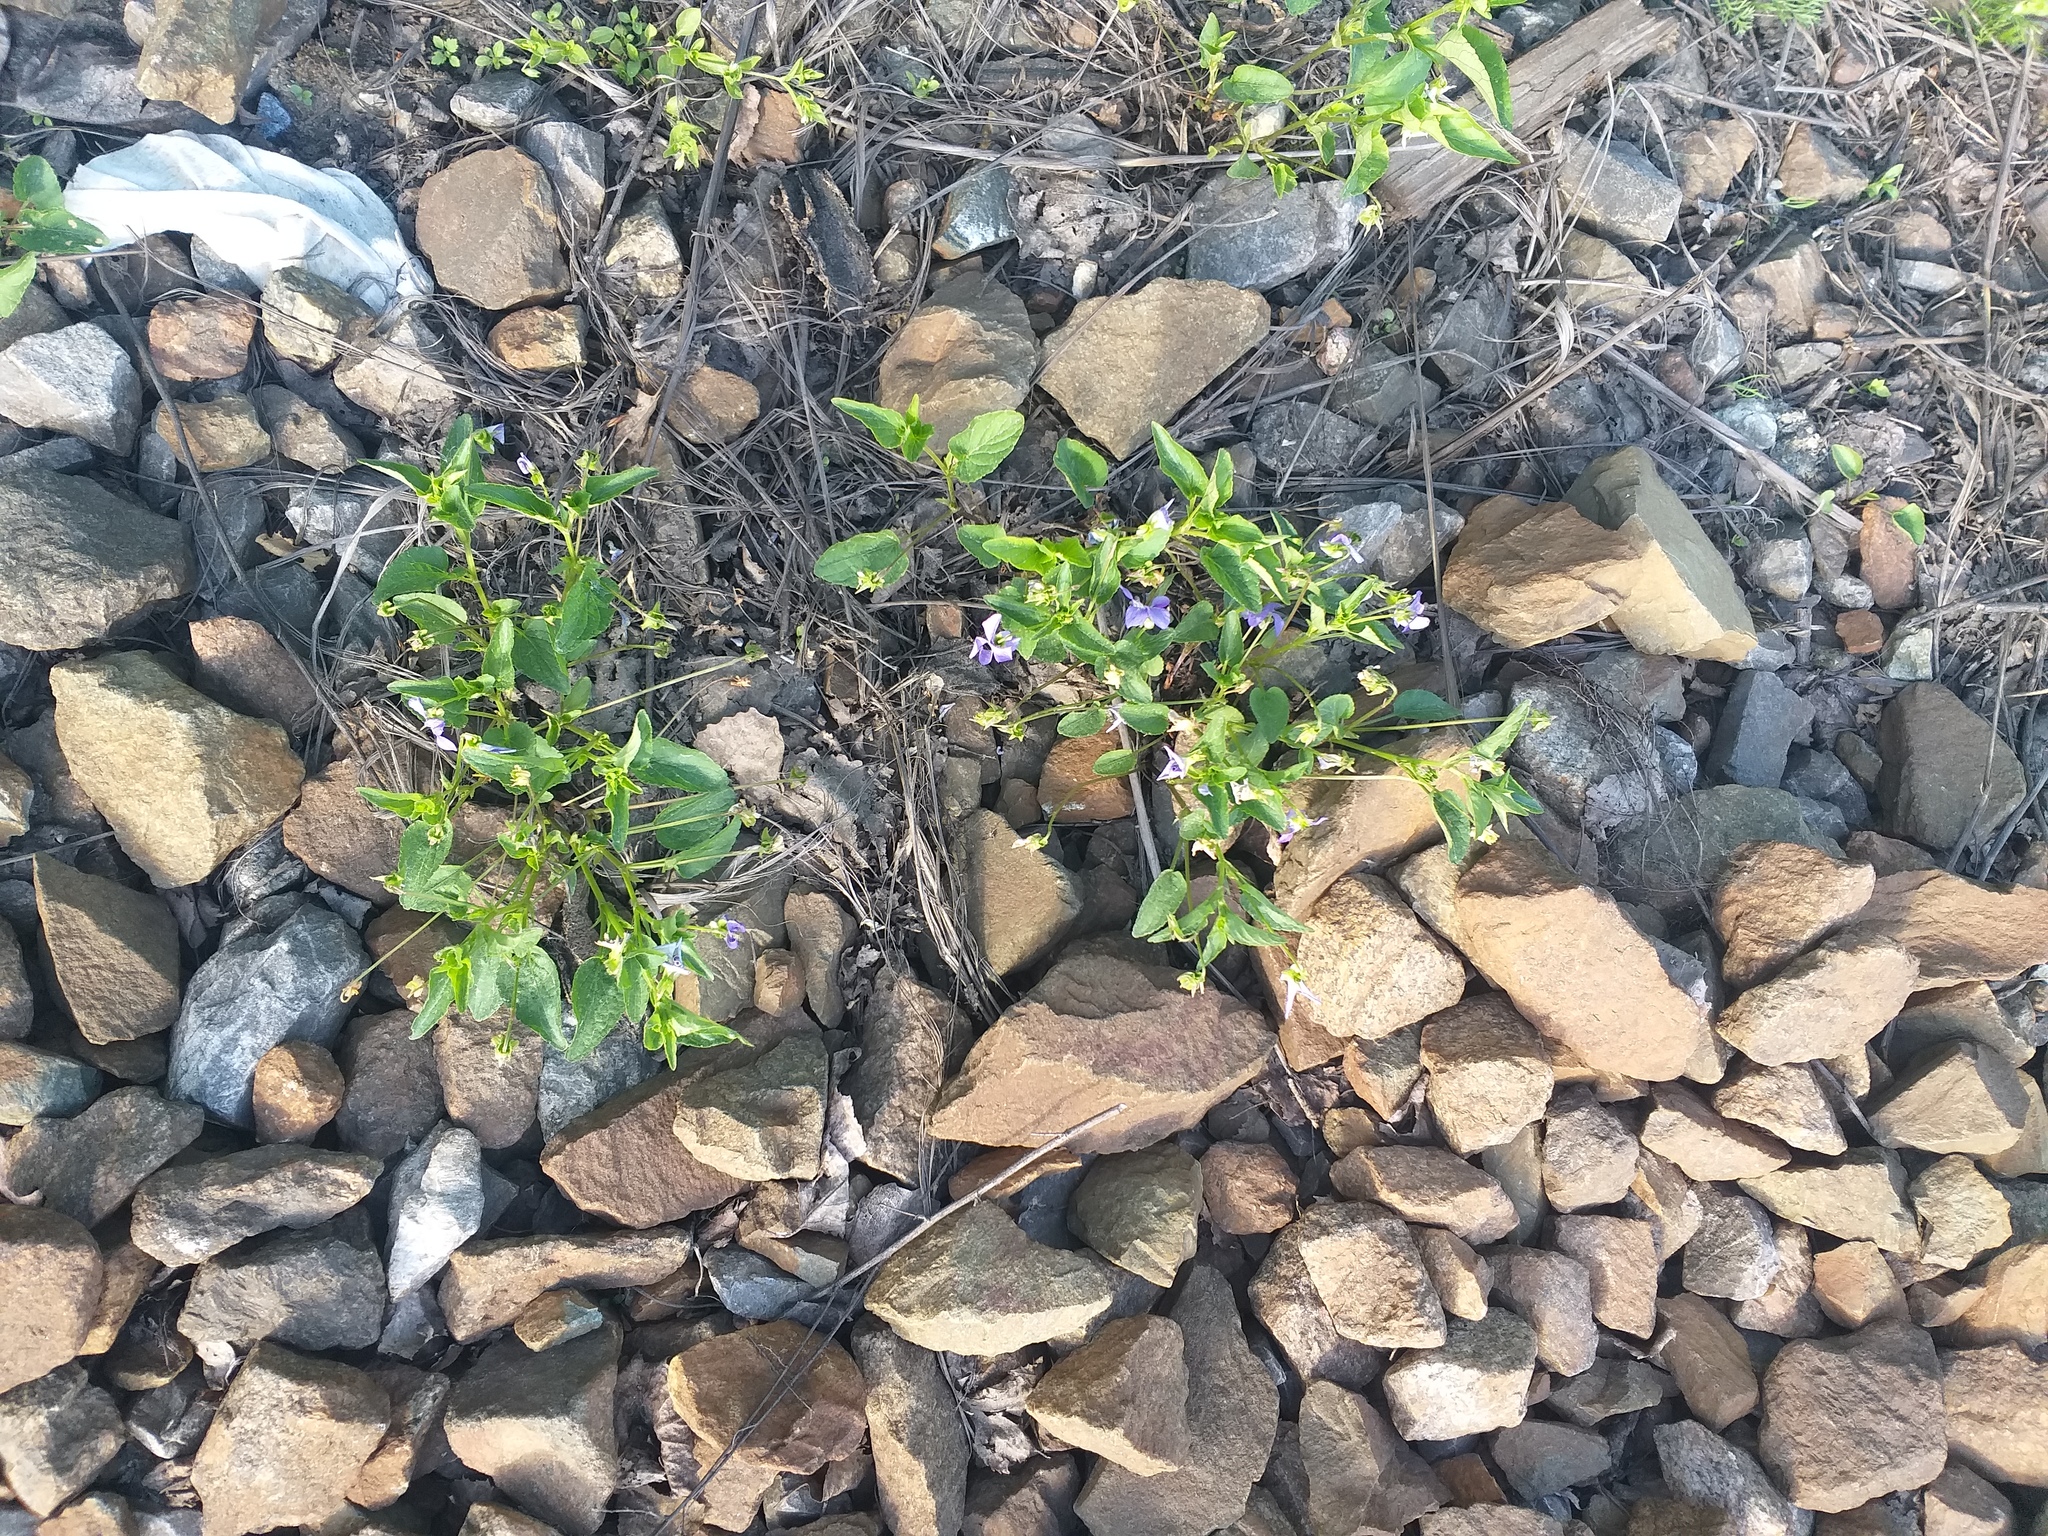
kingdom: Plantae
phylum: Tracheophyta
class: Magnoliopsida
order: Malpighiales
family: Violaceae
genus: Viola
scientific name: Viola canina
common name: Heath dog-violet
